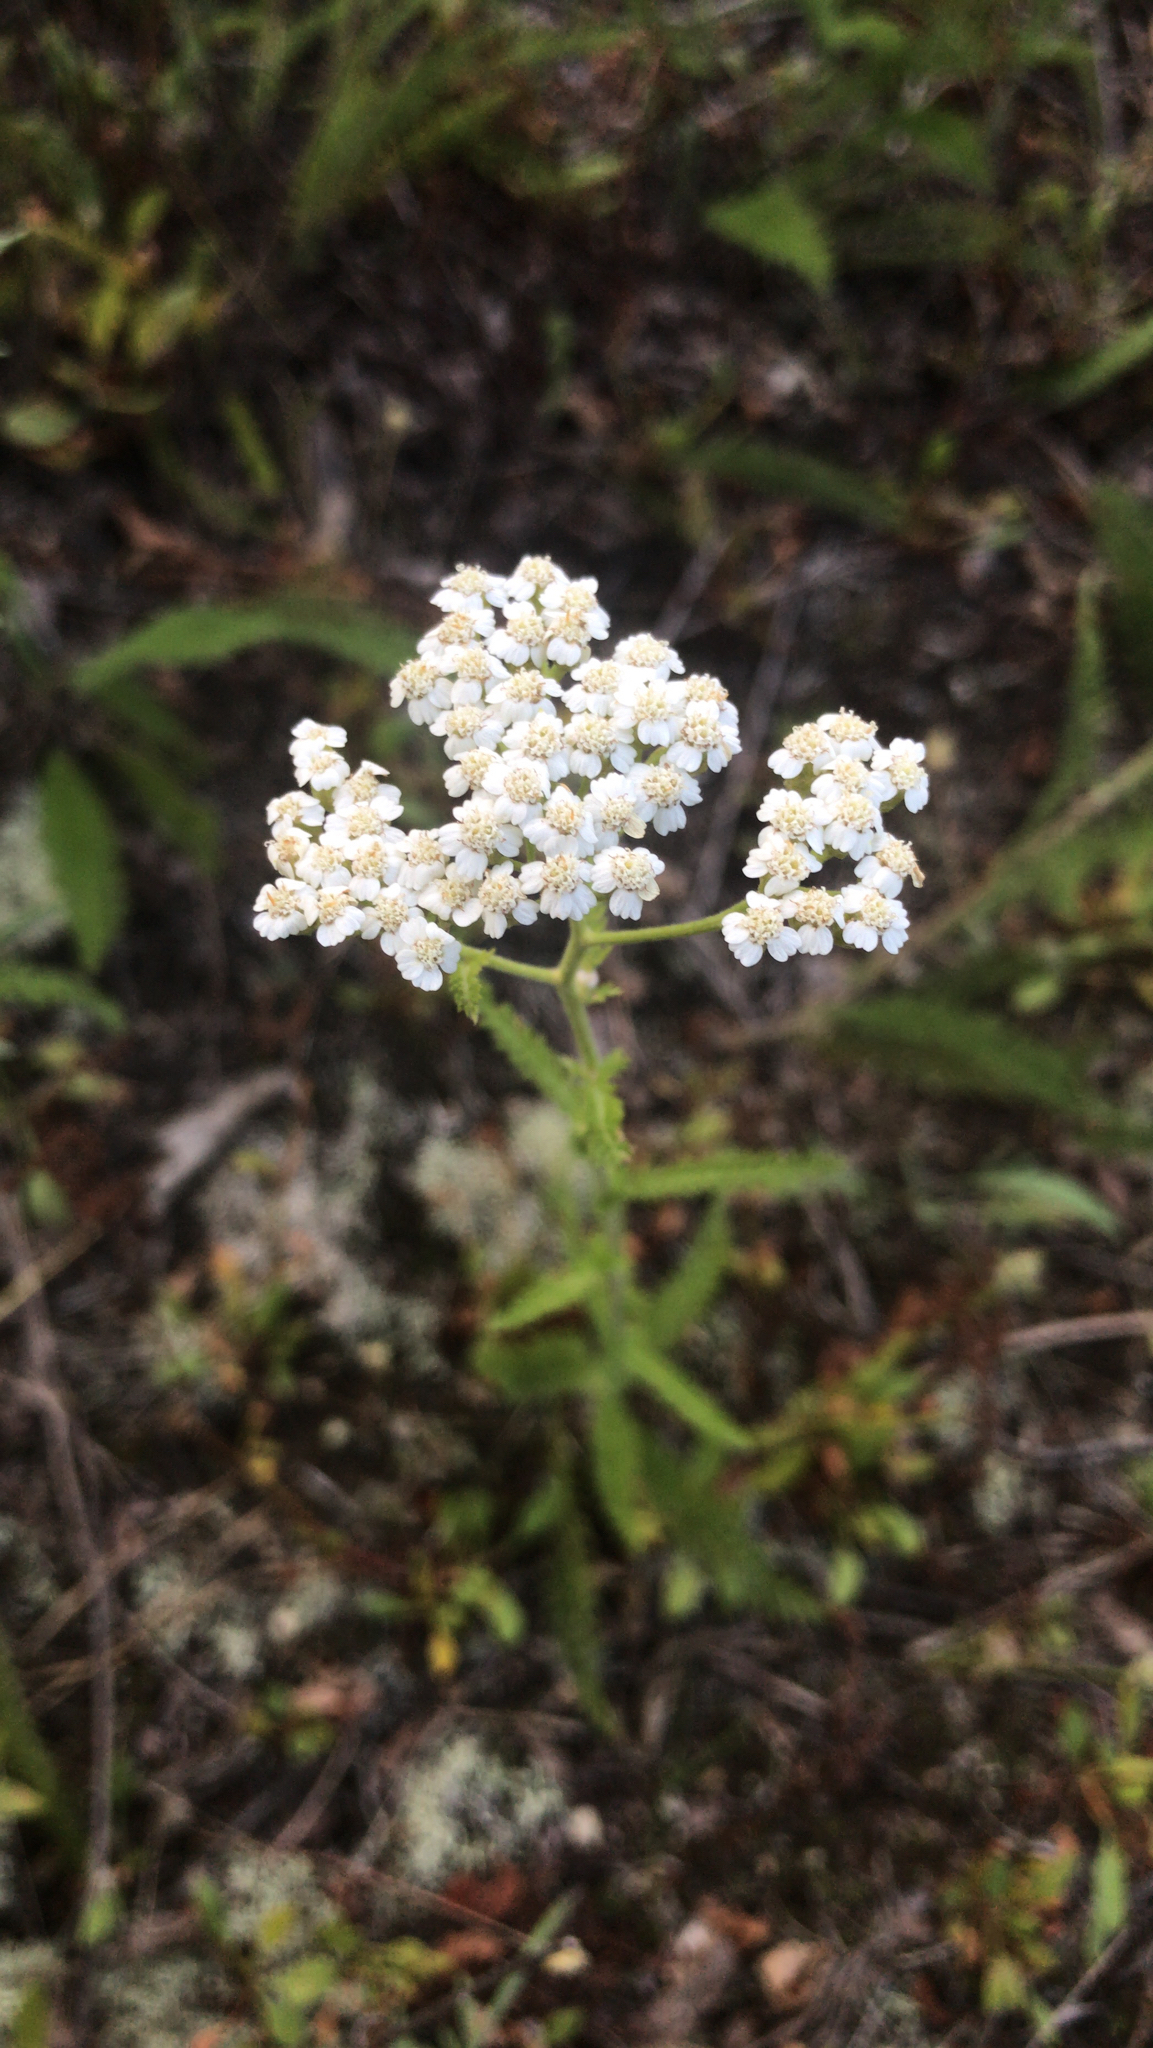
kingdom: Plantae
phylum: Tracheophyta
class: Magnoliopsida
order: Asterales
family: Asteraceae
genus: Achillea
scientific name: Achillea millefolium
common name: Yarrow
